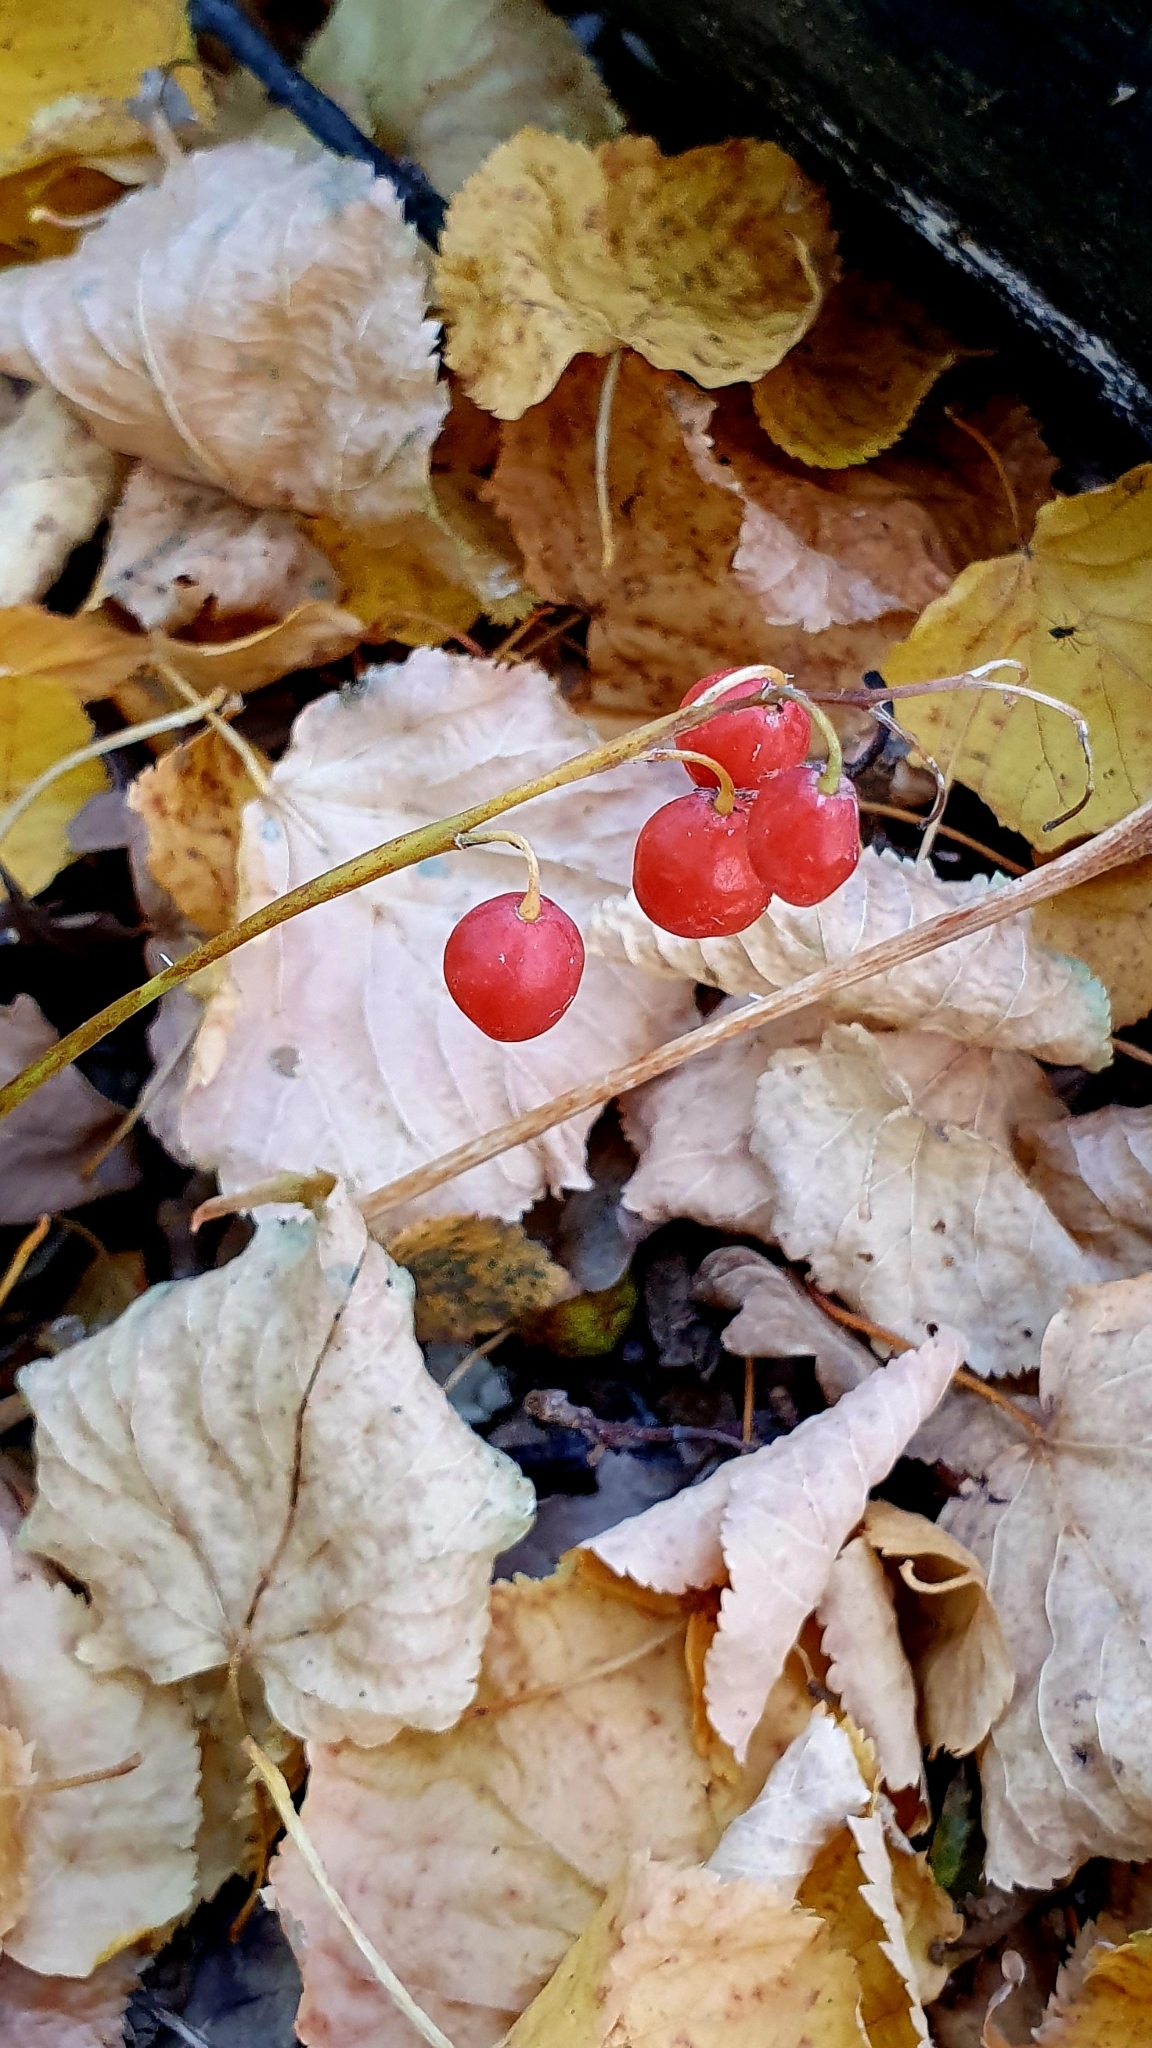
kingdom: Plantae
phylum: Tracheophyta
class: Liliopsida
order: Asparagales
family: Asparagaceae
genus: Convallaria
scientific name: Convallaria majalis
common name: Lily-of-the-valley
